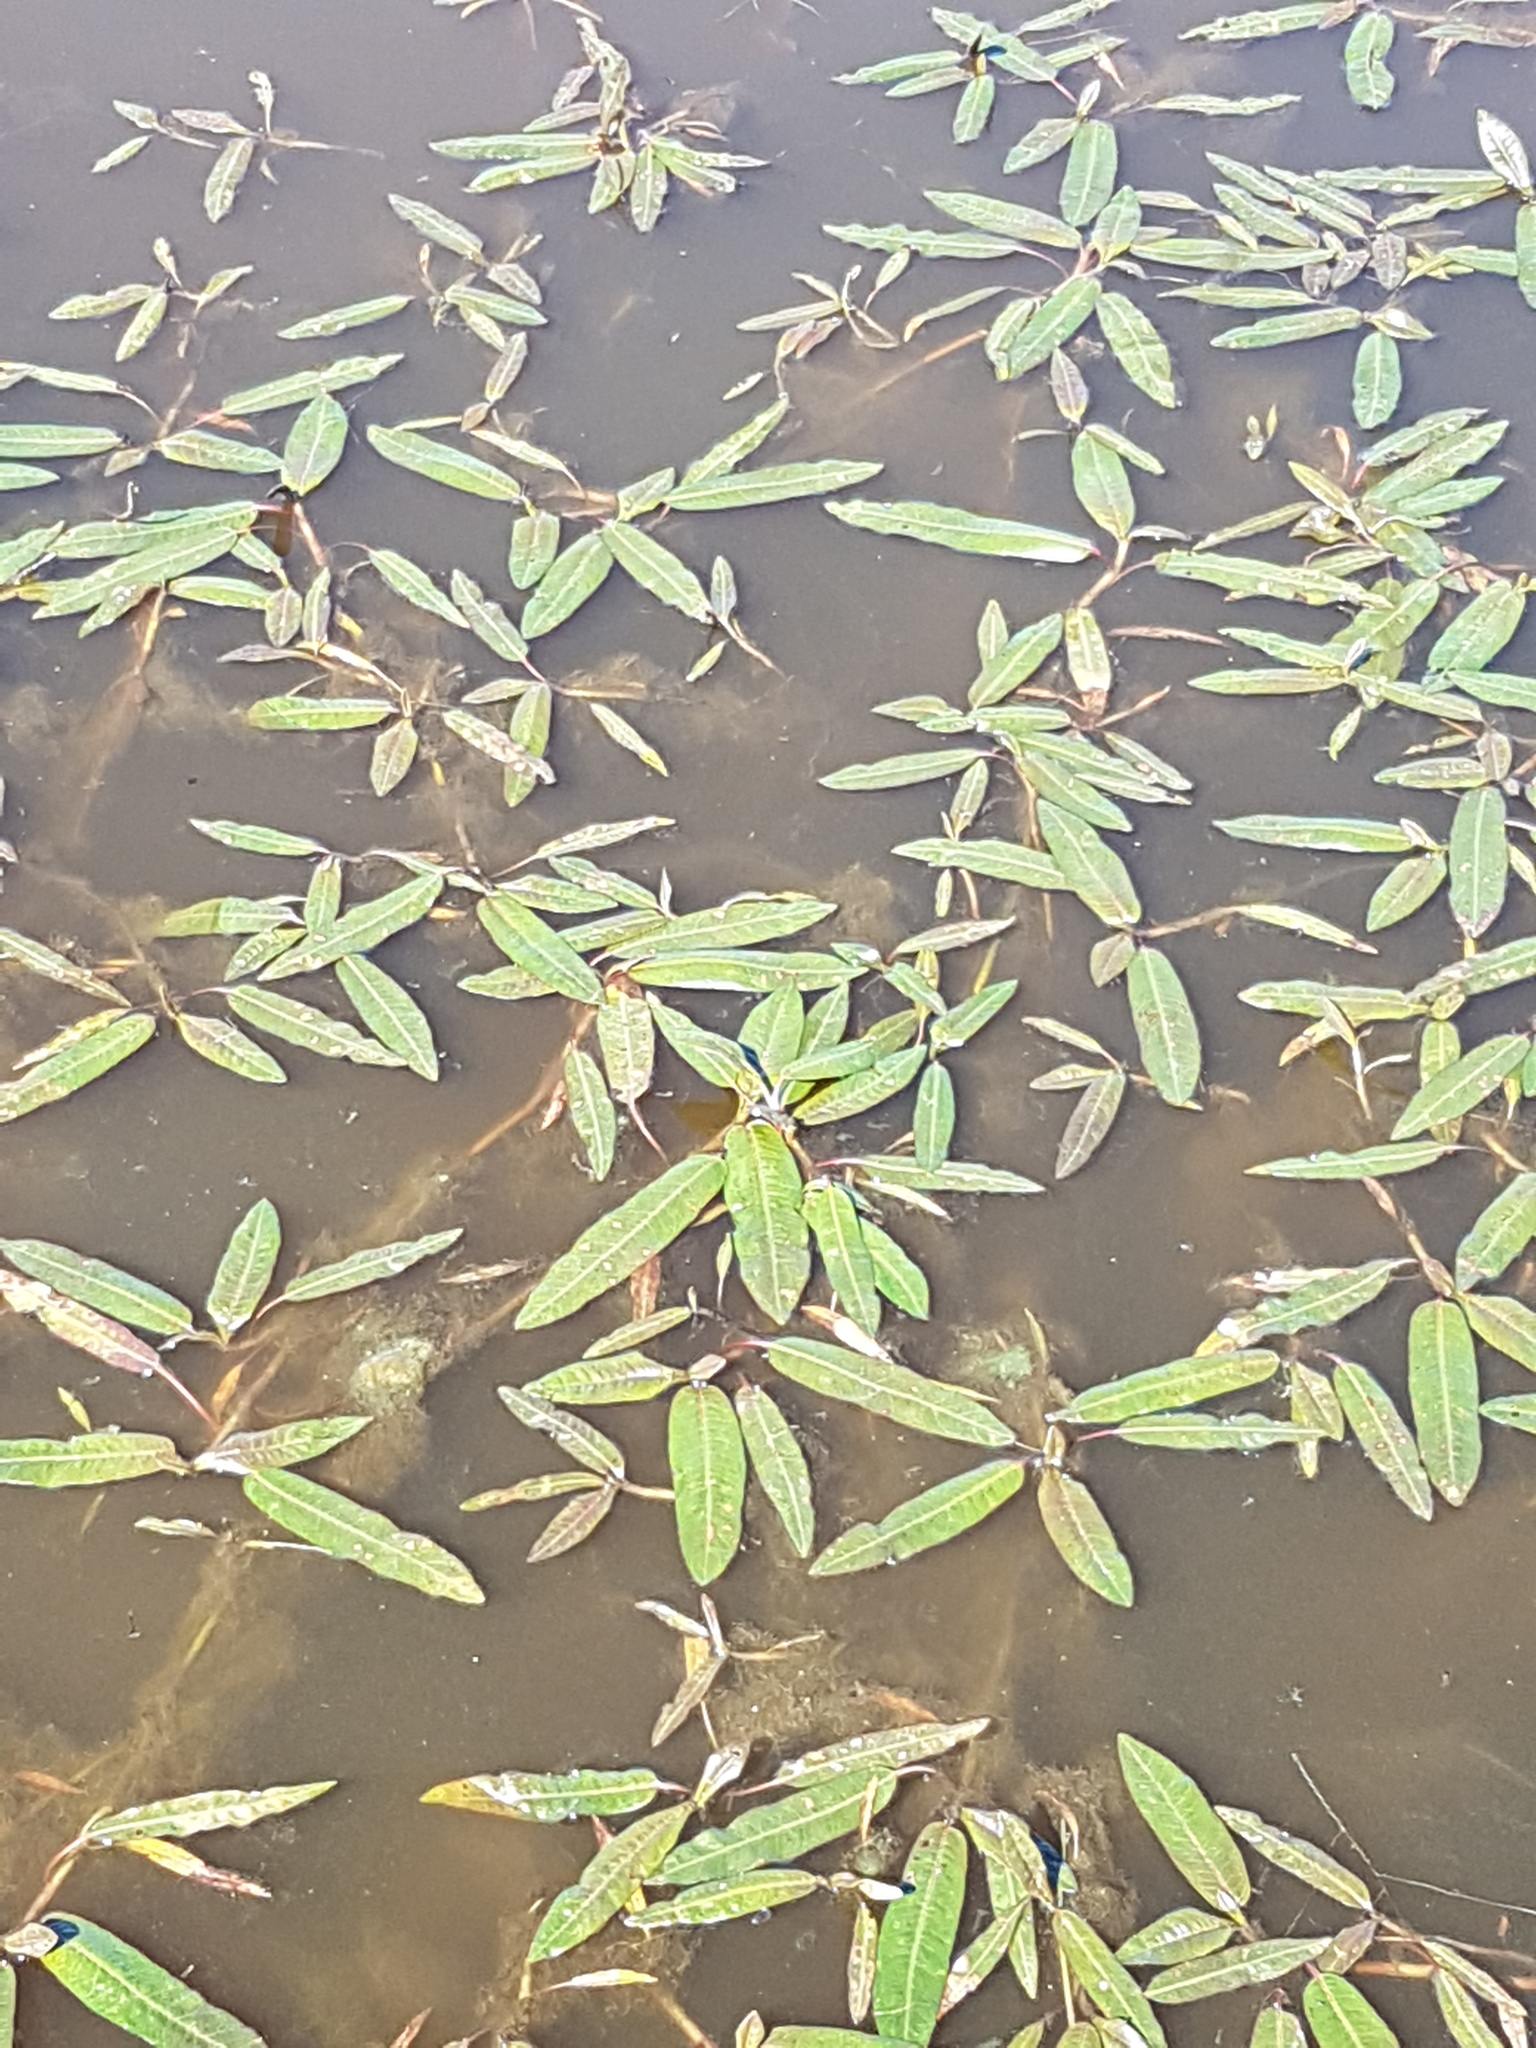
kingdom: Plantae
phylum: Tracheophyta
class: Magnoliopsida
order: Caryophyllales
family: Polygonaceae
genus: Persicaria
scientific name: Persicaria amphibia
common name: Amphibious bistort
